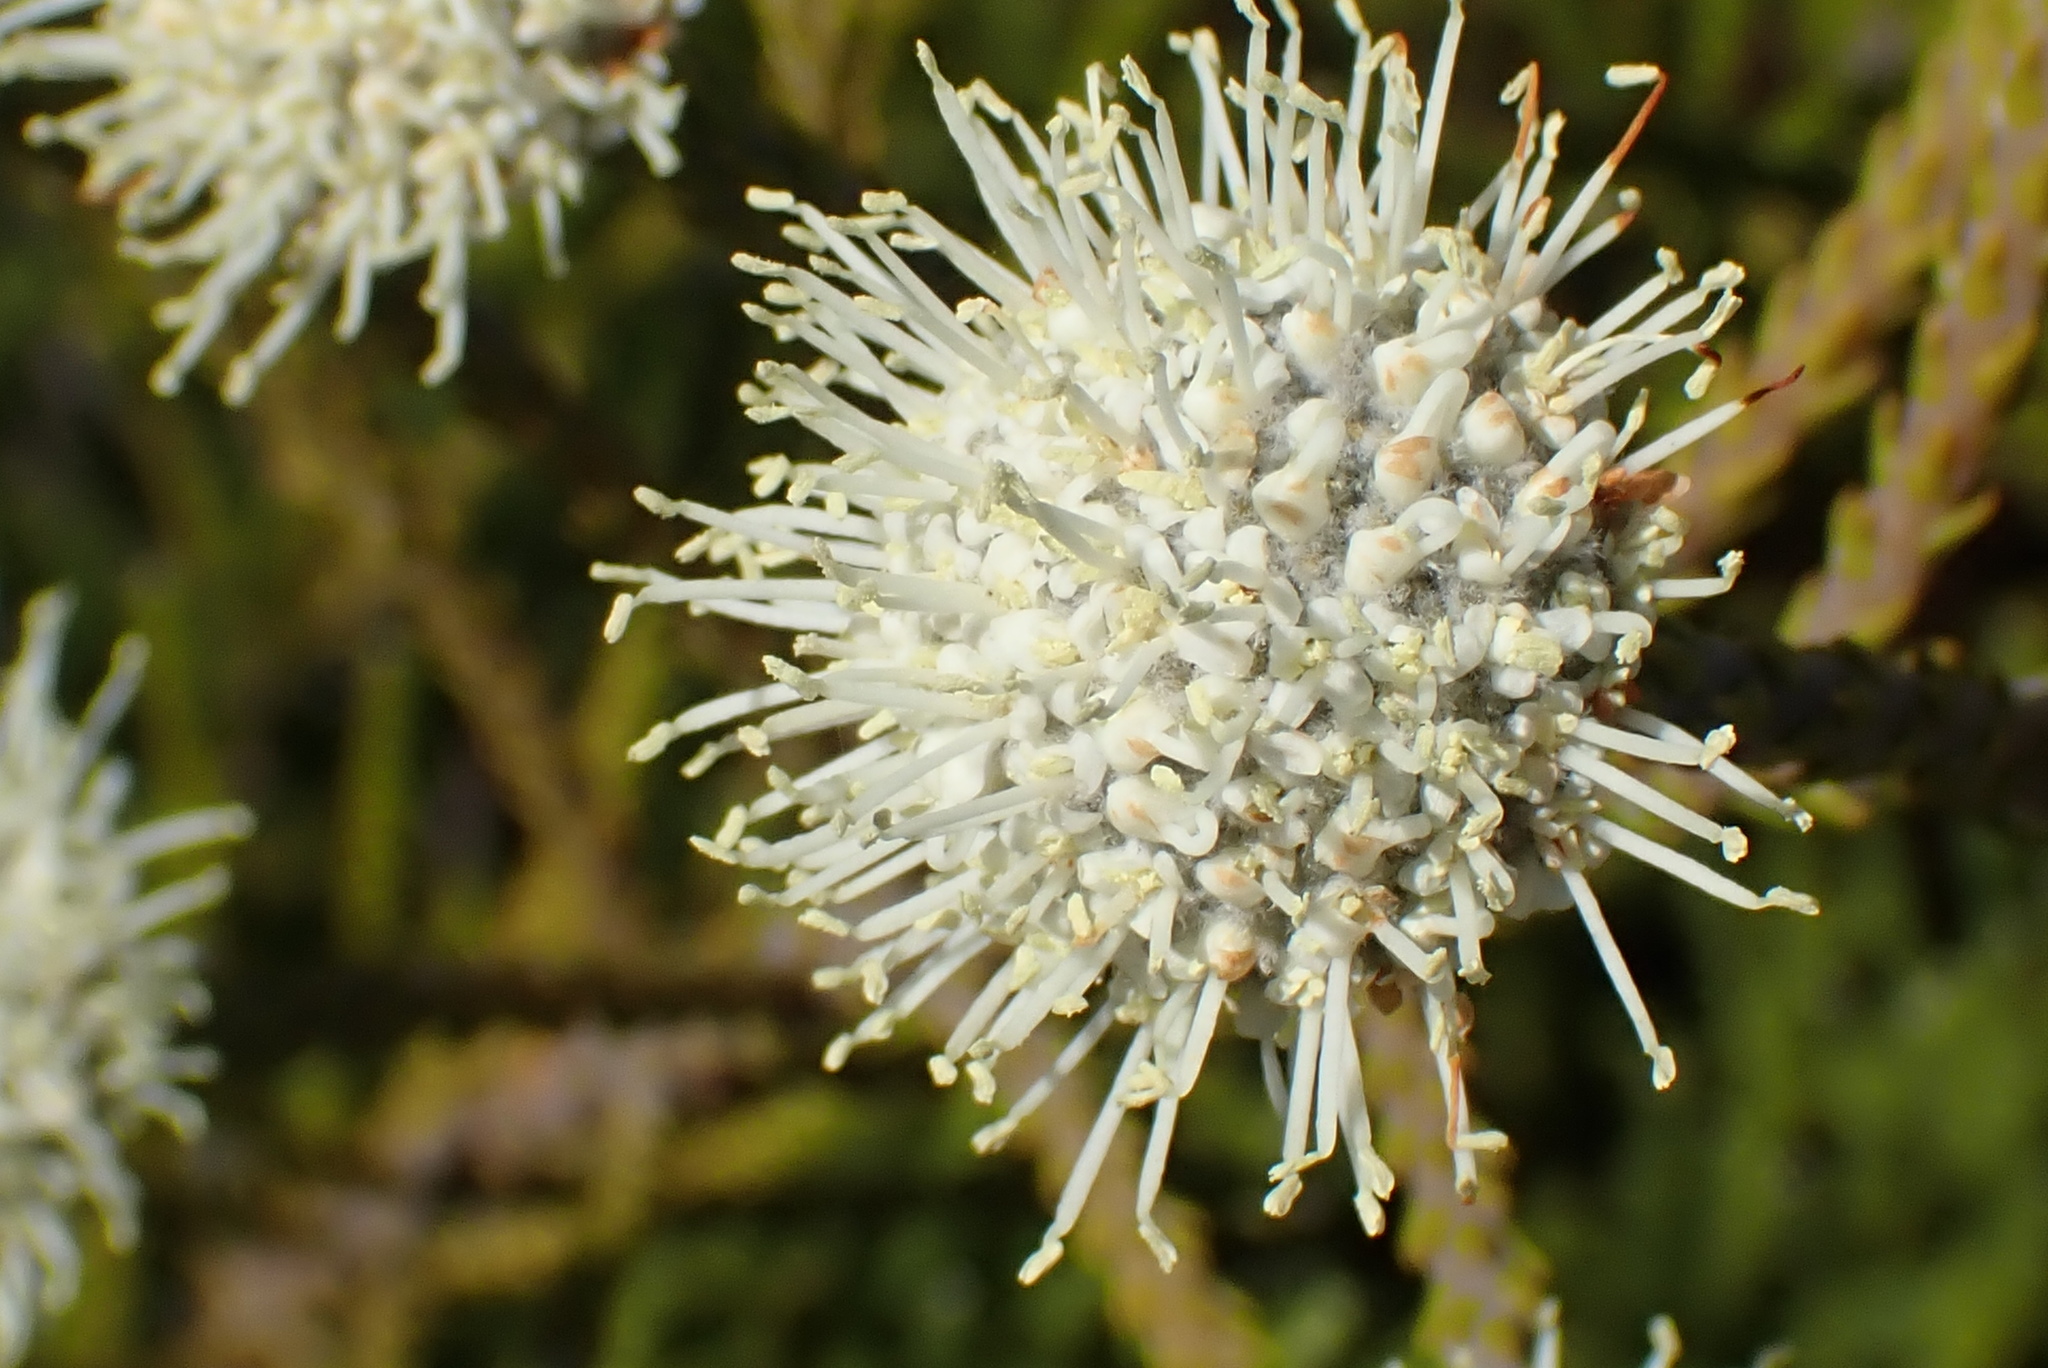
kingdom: Plantae
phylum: Tracheophyta
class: Magnoliopsida
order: Bruniales
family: Bruniaceae
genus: Brunia
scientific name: Brunia noduliflora
